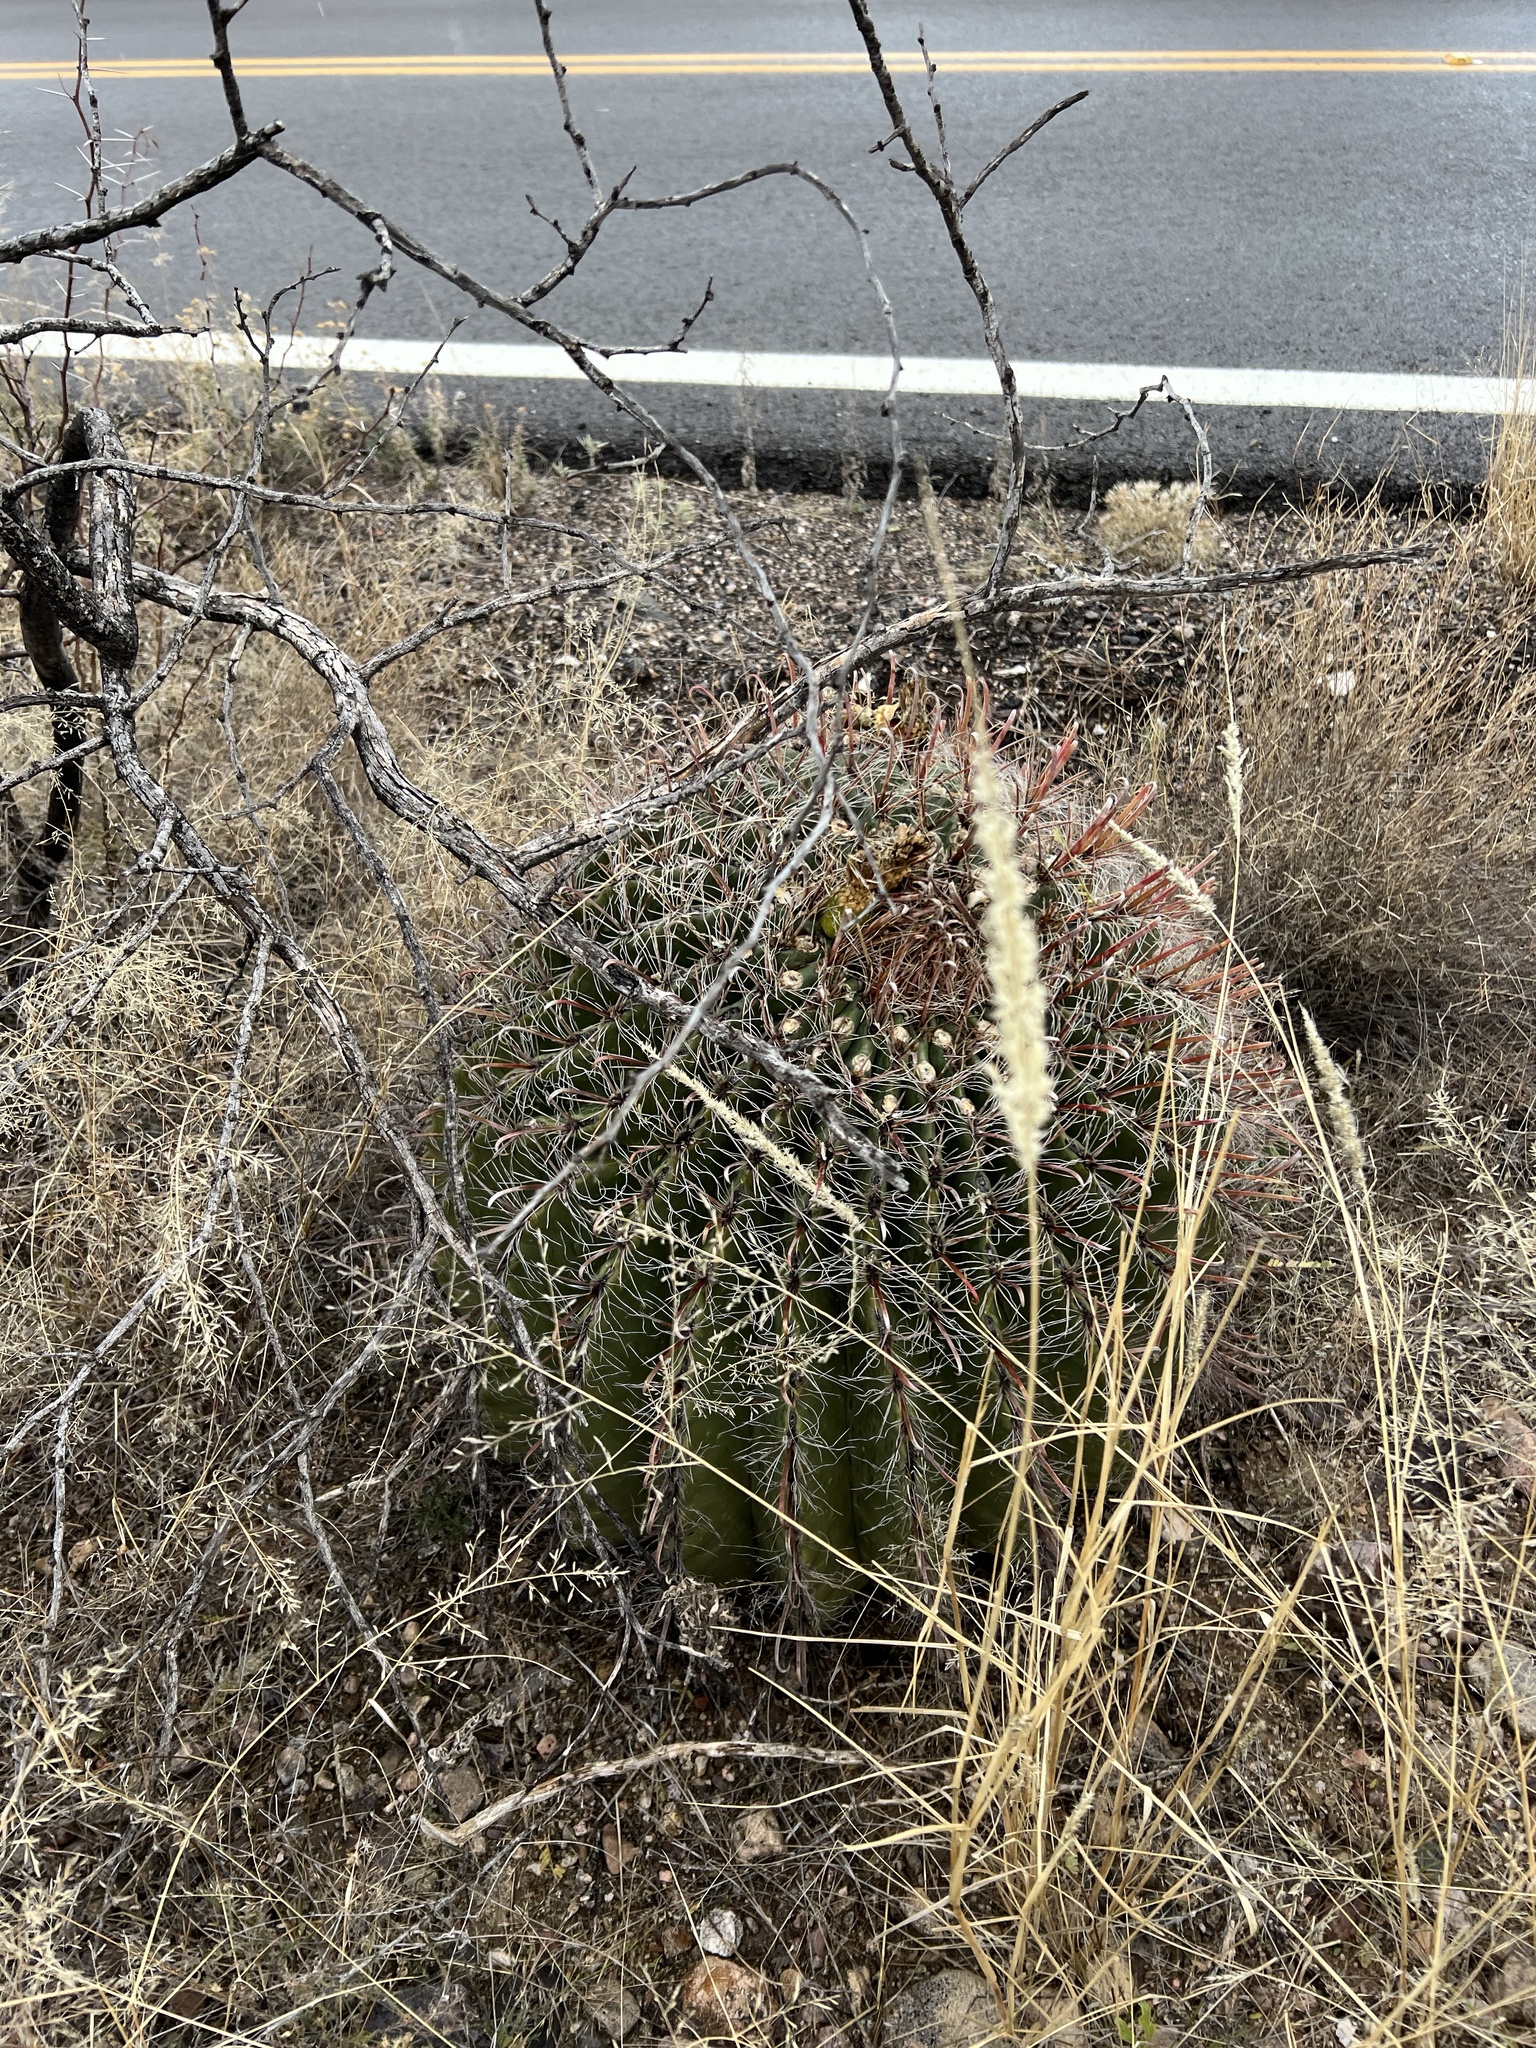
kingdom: Plantae
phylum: Tracheophyta
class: Magnoliopsida
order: Caryophyllales
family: Cactaceae
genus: Ferocactus
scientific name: Ferocactus wislizeni
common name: Candy barrel cactus
